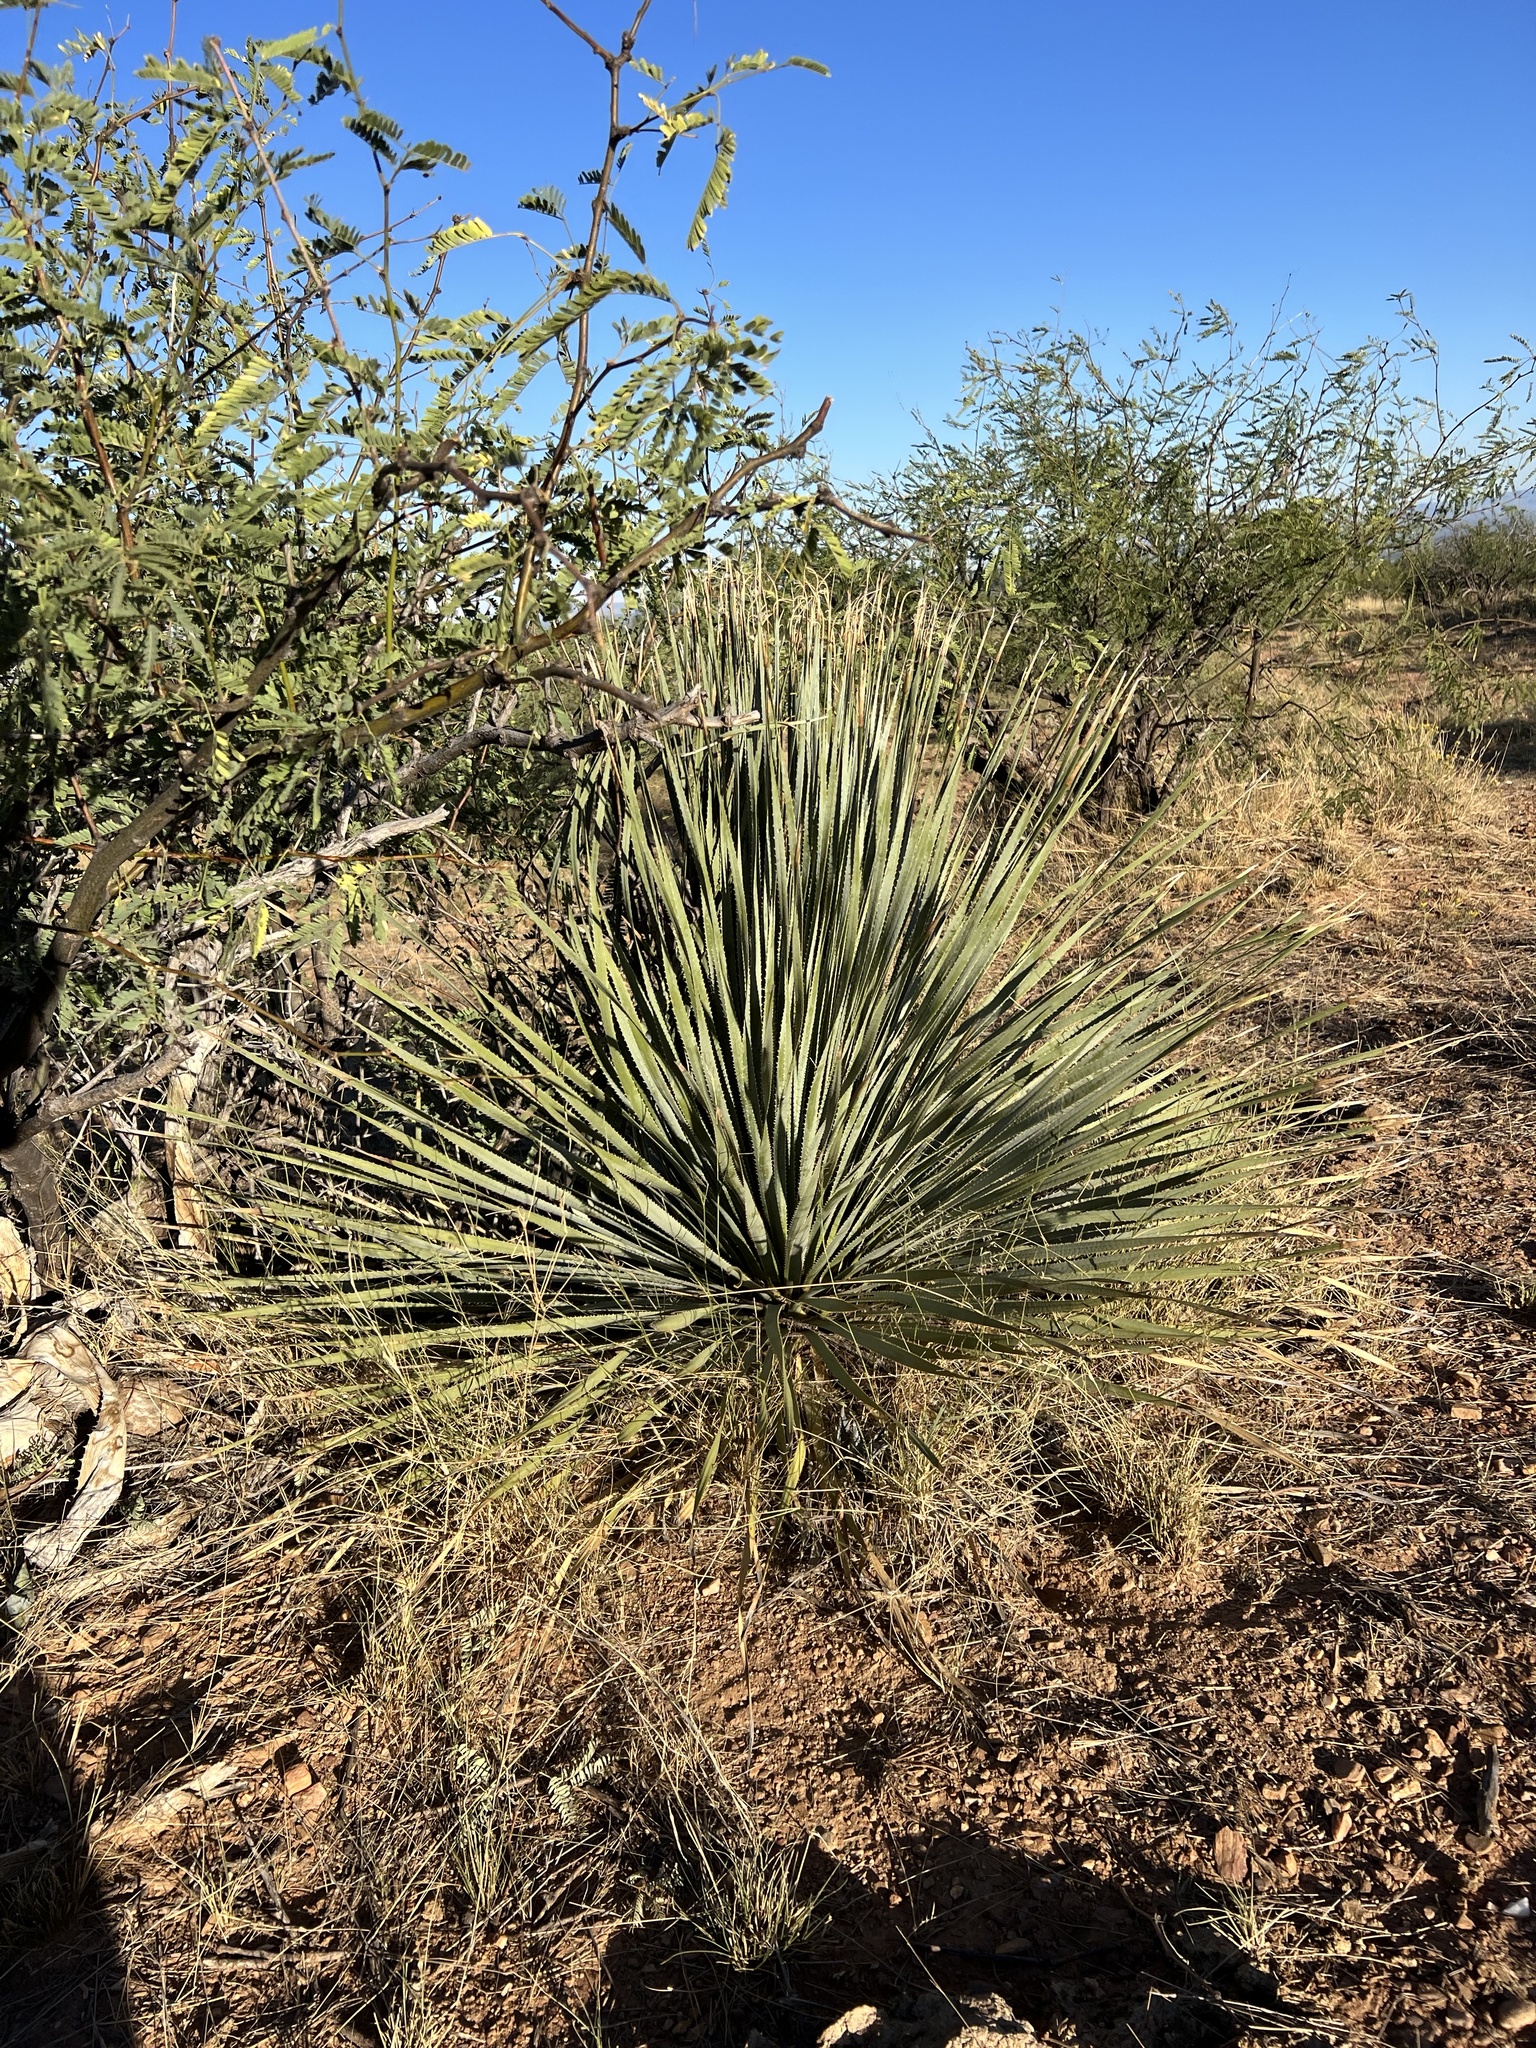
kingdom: Plantae
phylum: Tracheophyta
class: Liliopsida
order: Asparagales
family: Asparagaceae
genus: Dasylirion
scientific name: Dasylirion wheeleri
